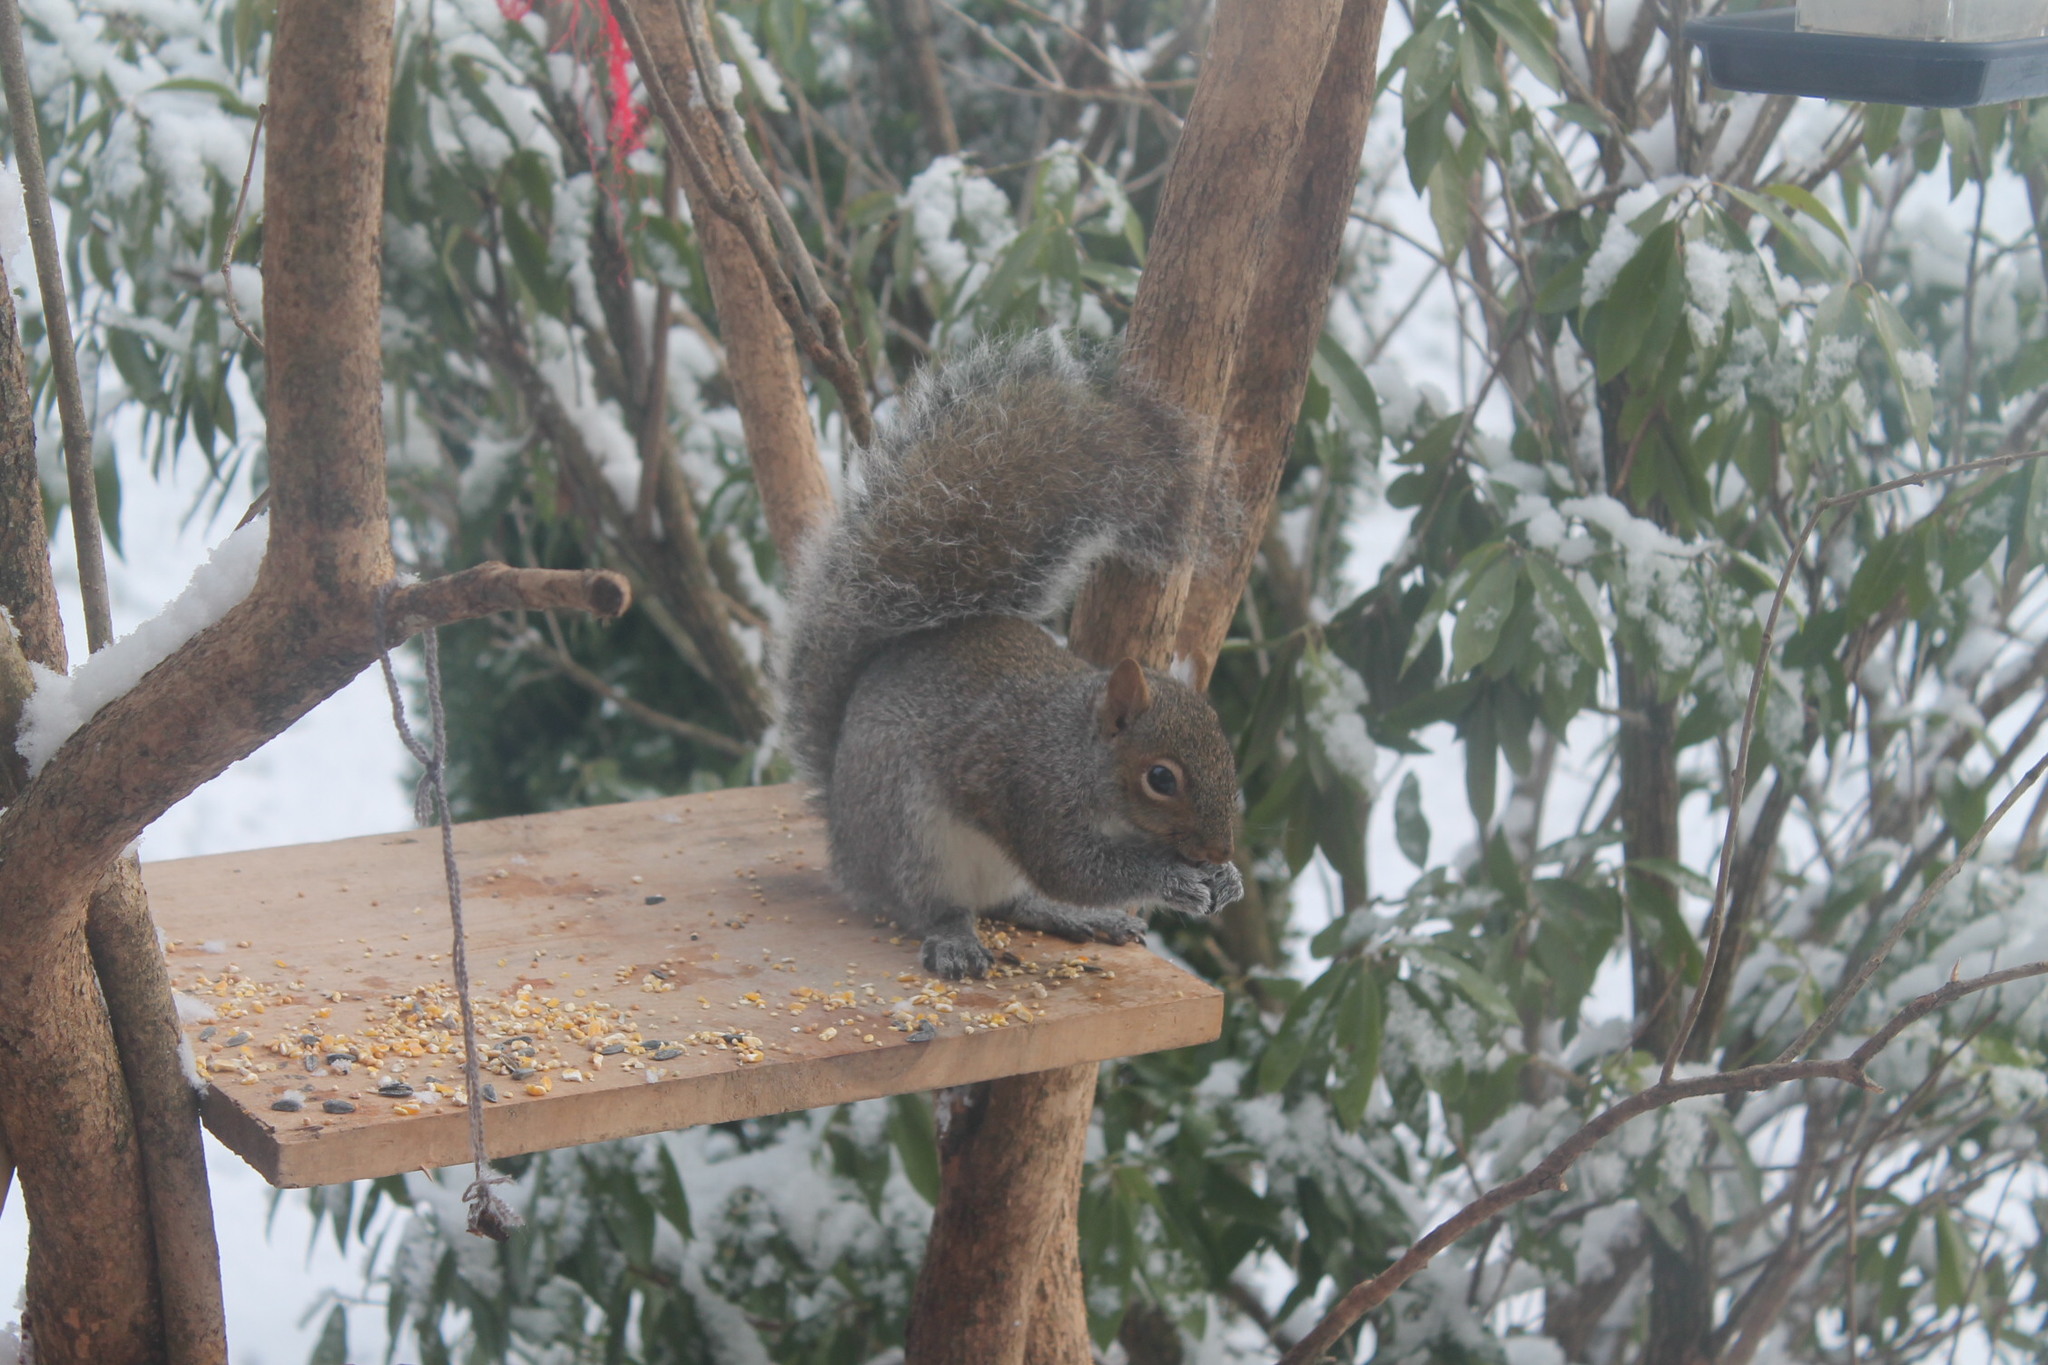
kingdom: Animalia
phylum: Chordata
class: Mammalia
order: Rodentia
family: Sciuridae
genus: Sciurus
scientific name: Sciurus carolinensis
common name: Eastern gray squirrel
